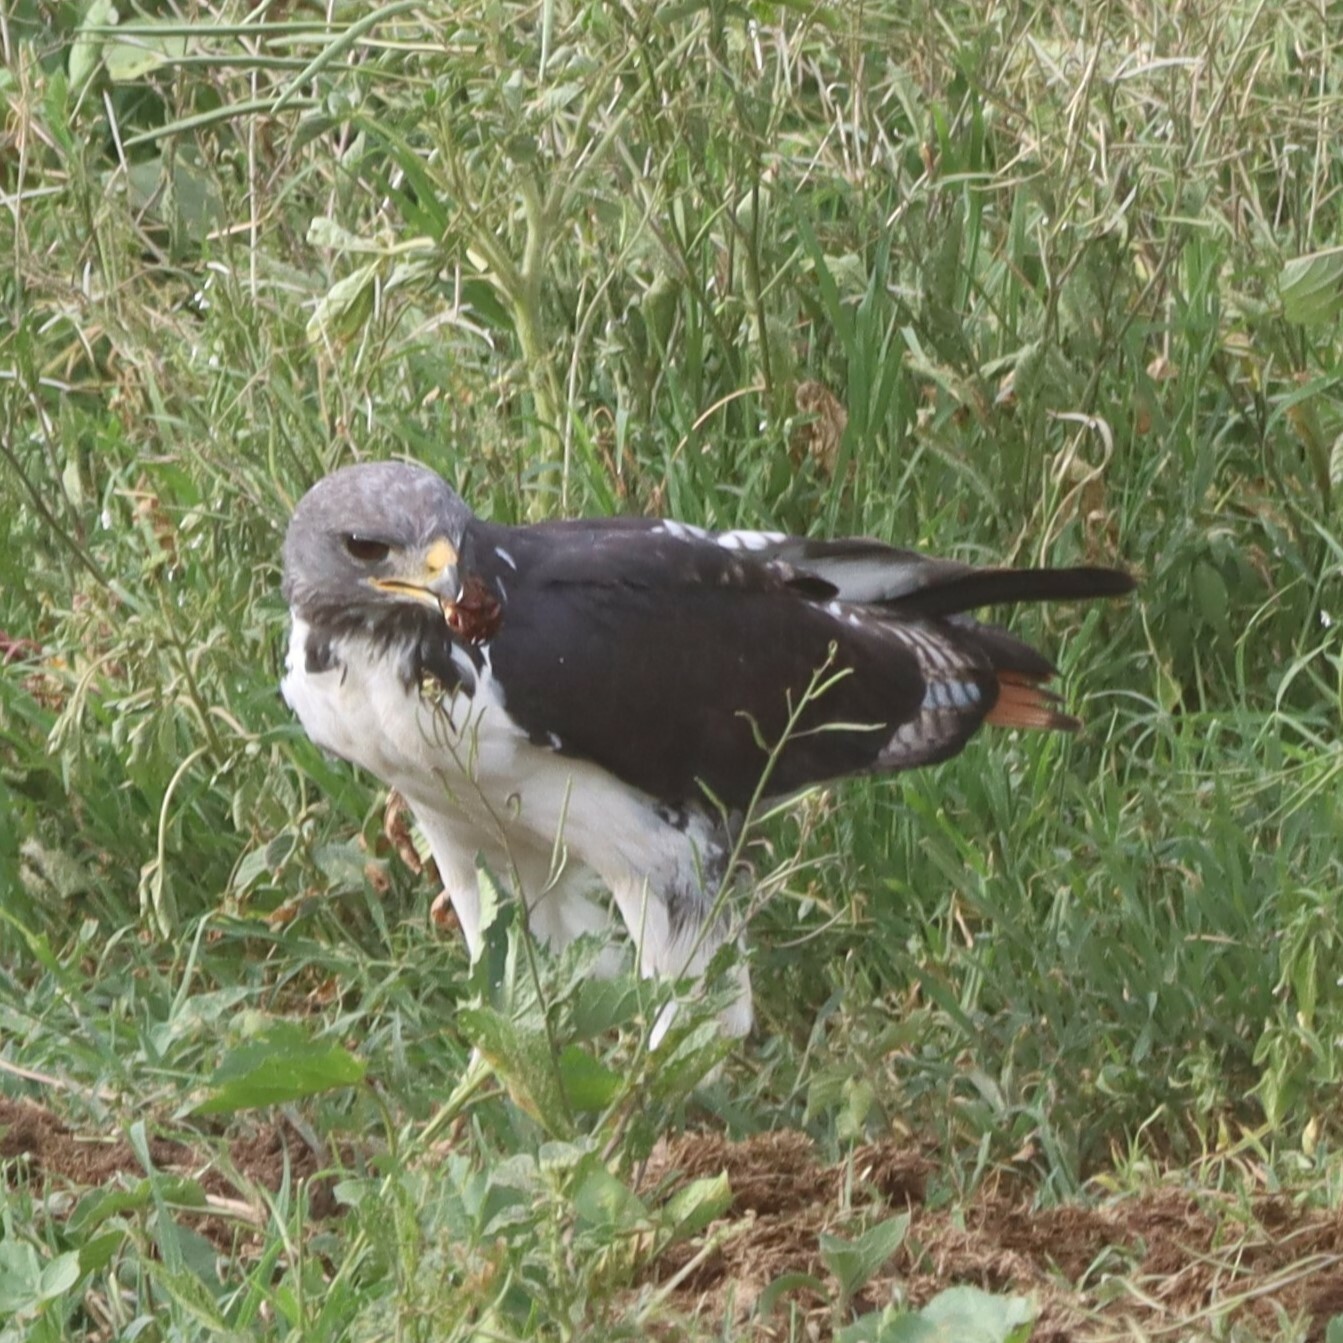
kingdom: Animalia
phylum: Chordata
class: Aves
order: Accipitriformes
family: Accipitridae
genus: Buteo
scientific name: Buteo augur
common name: Augur buzzard
